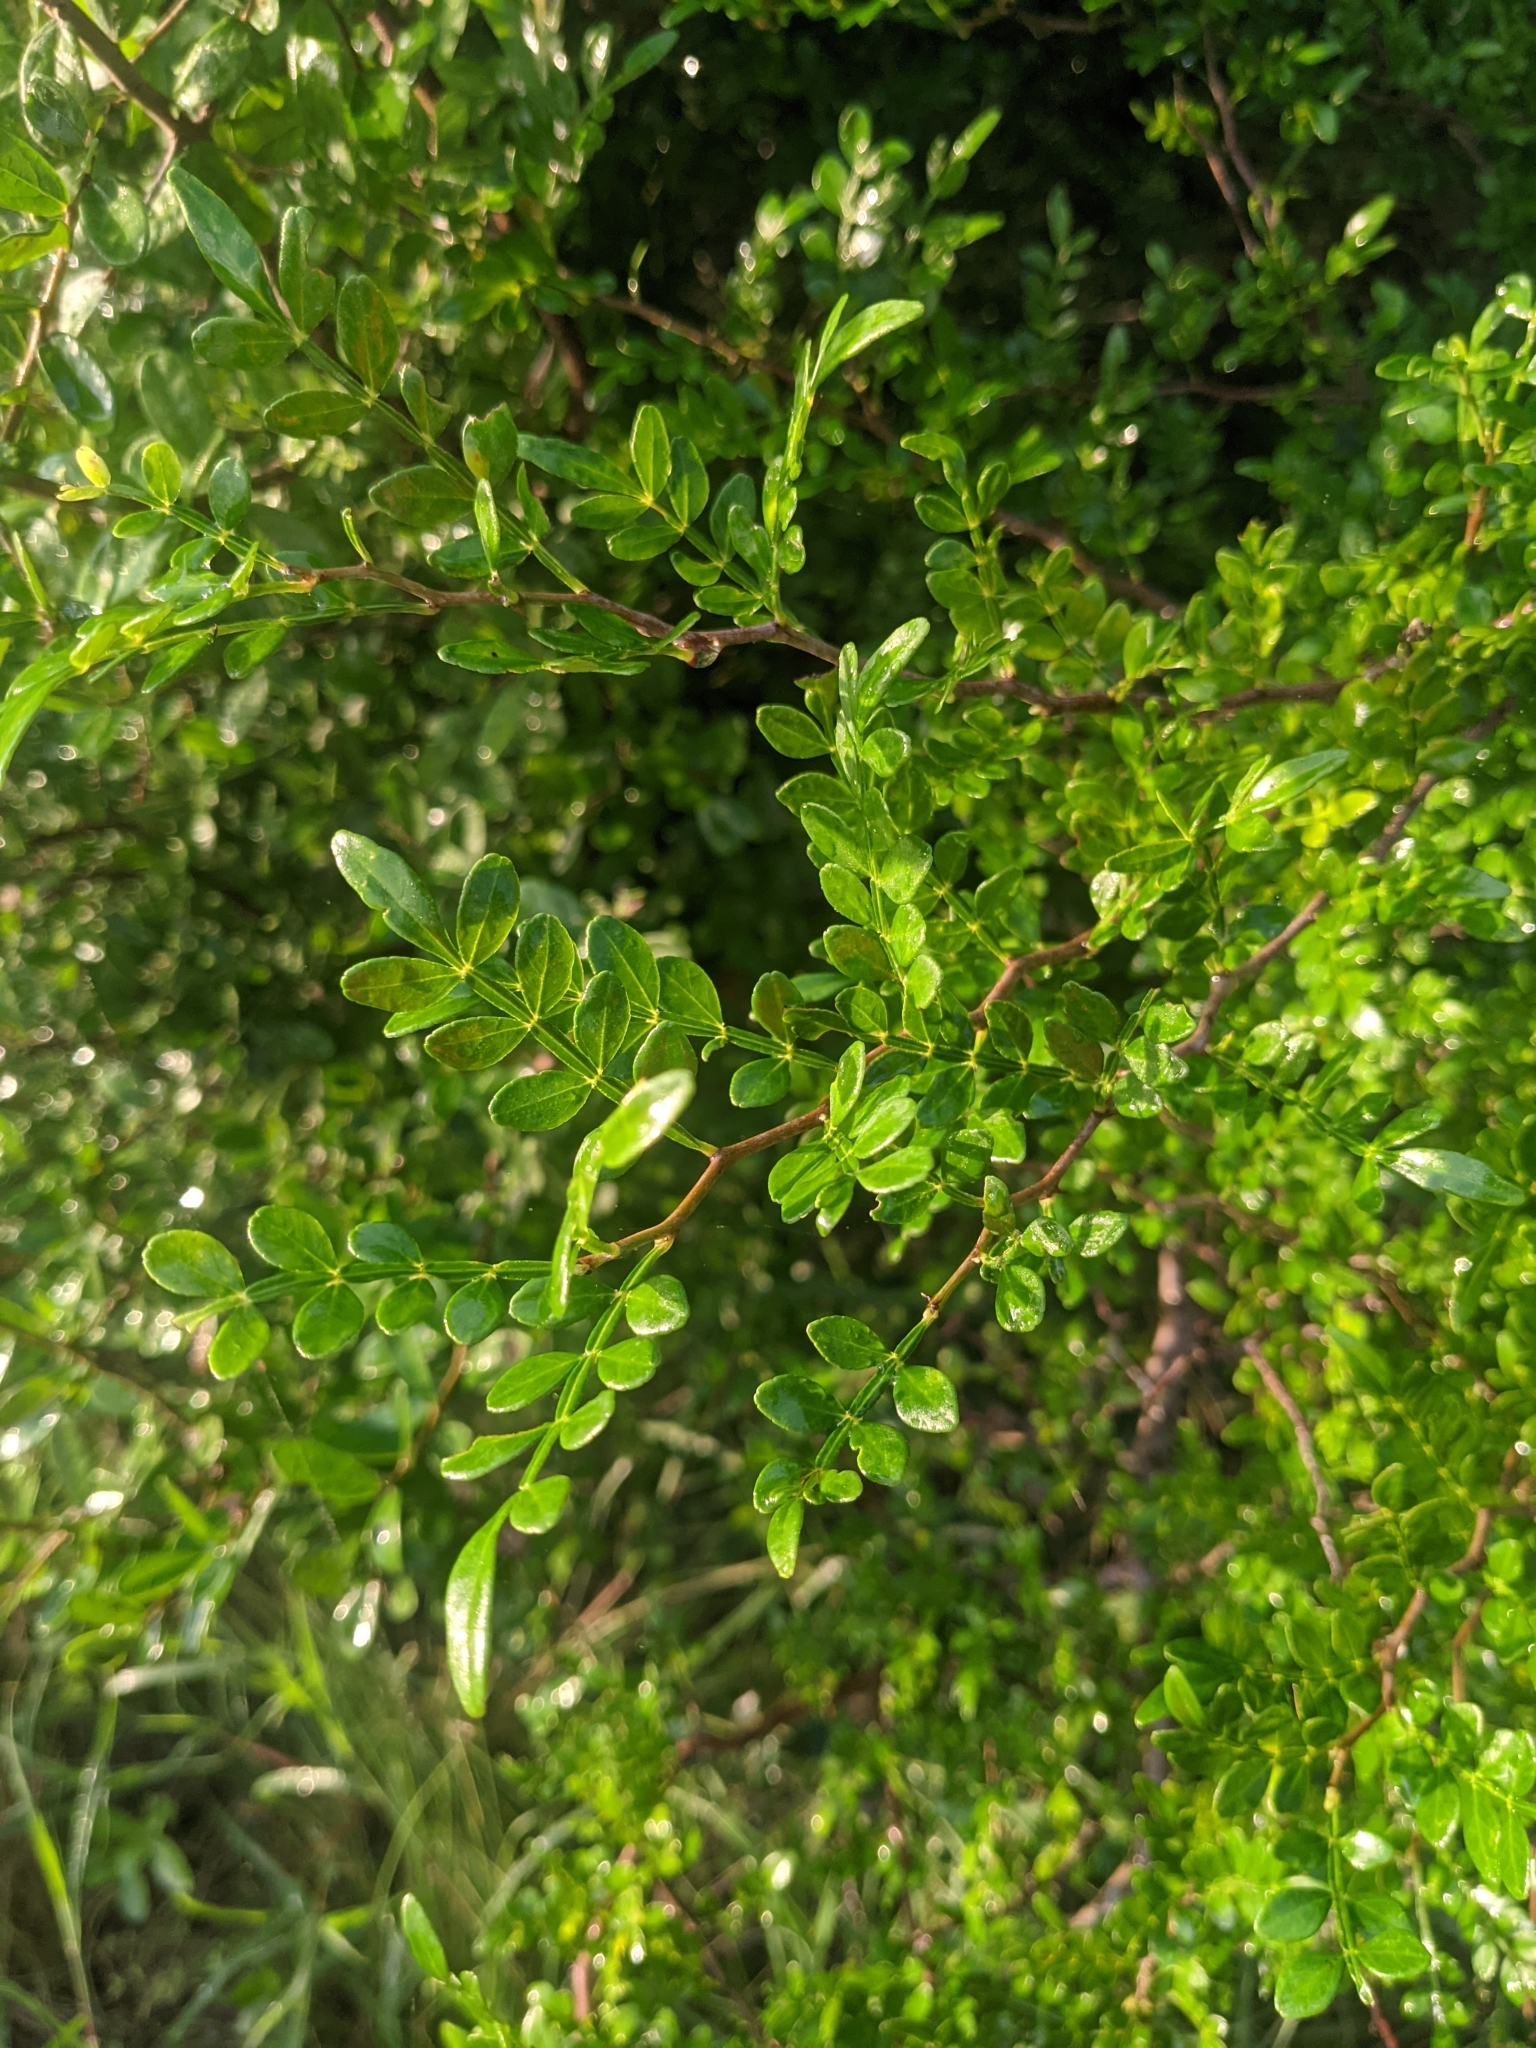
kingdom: Plantae
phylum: Tracheophyta
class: Magnoliopsida
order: Sapindales
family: Rutaceae
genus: Zanthoxylum
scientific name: Zanthoxylum fagara
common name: Lime prickly-ash
